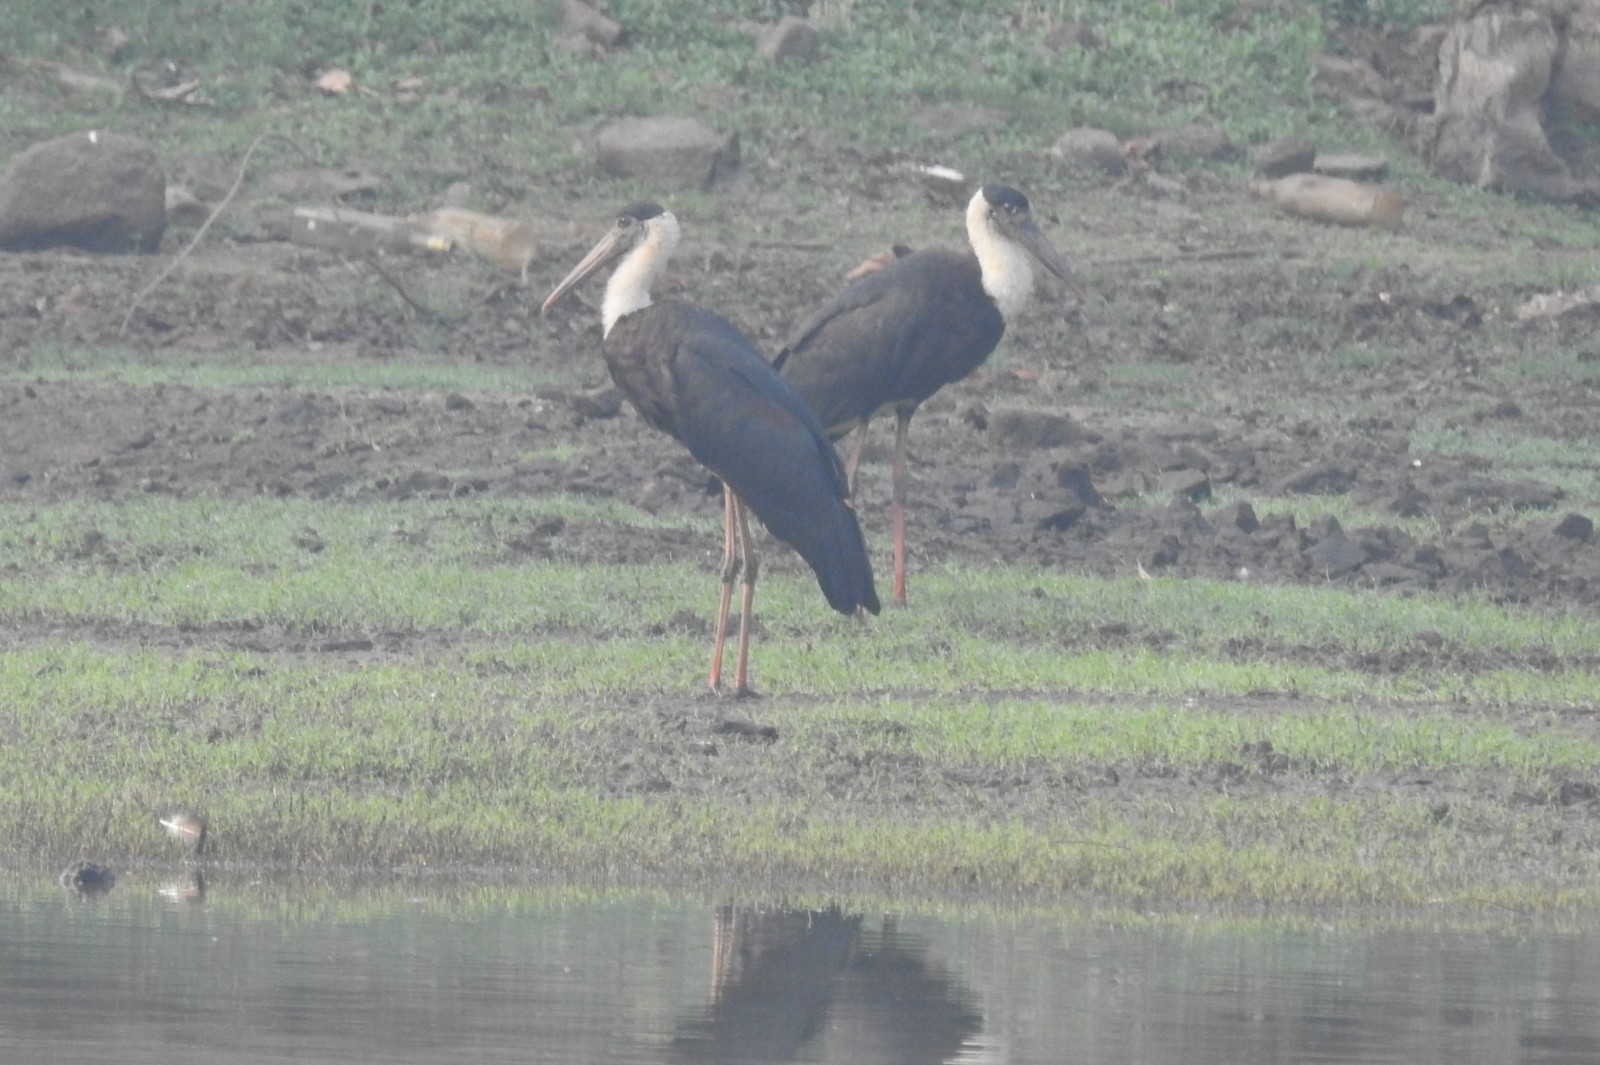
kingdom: Animalia
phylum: Chordata
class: Aves
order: Ciconiiformes
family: Ciconiidae
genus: Ciconia
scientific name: Ciconia episcopus
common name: Woolly-necked stork
